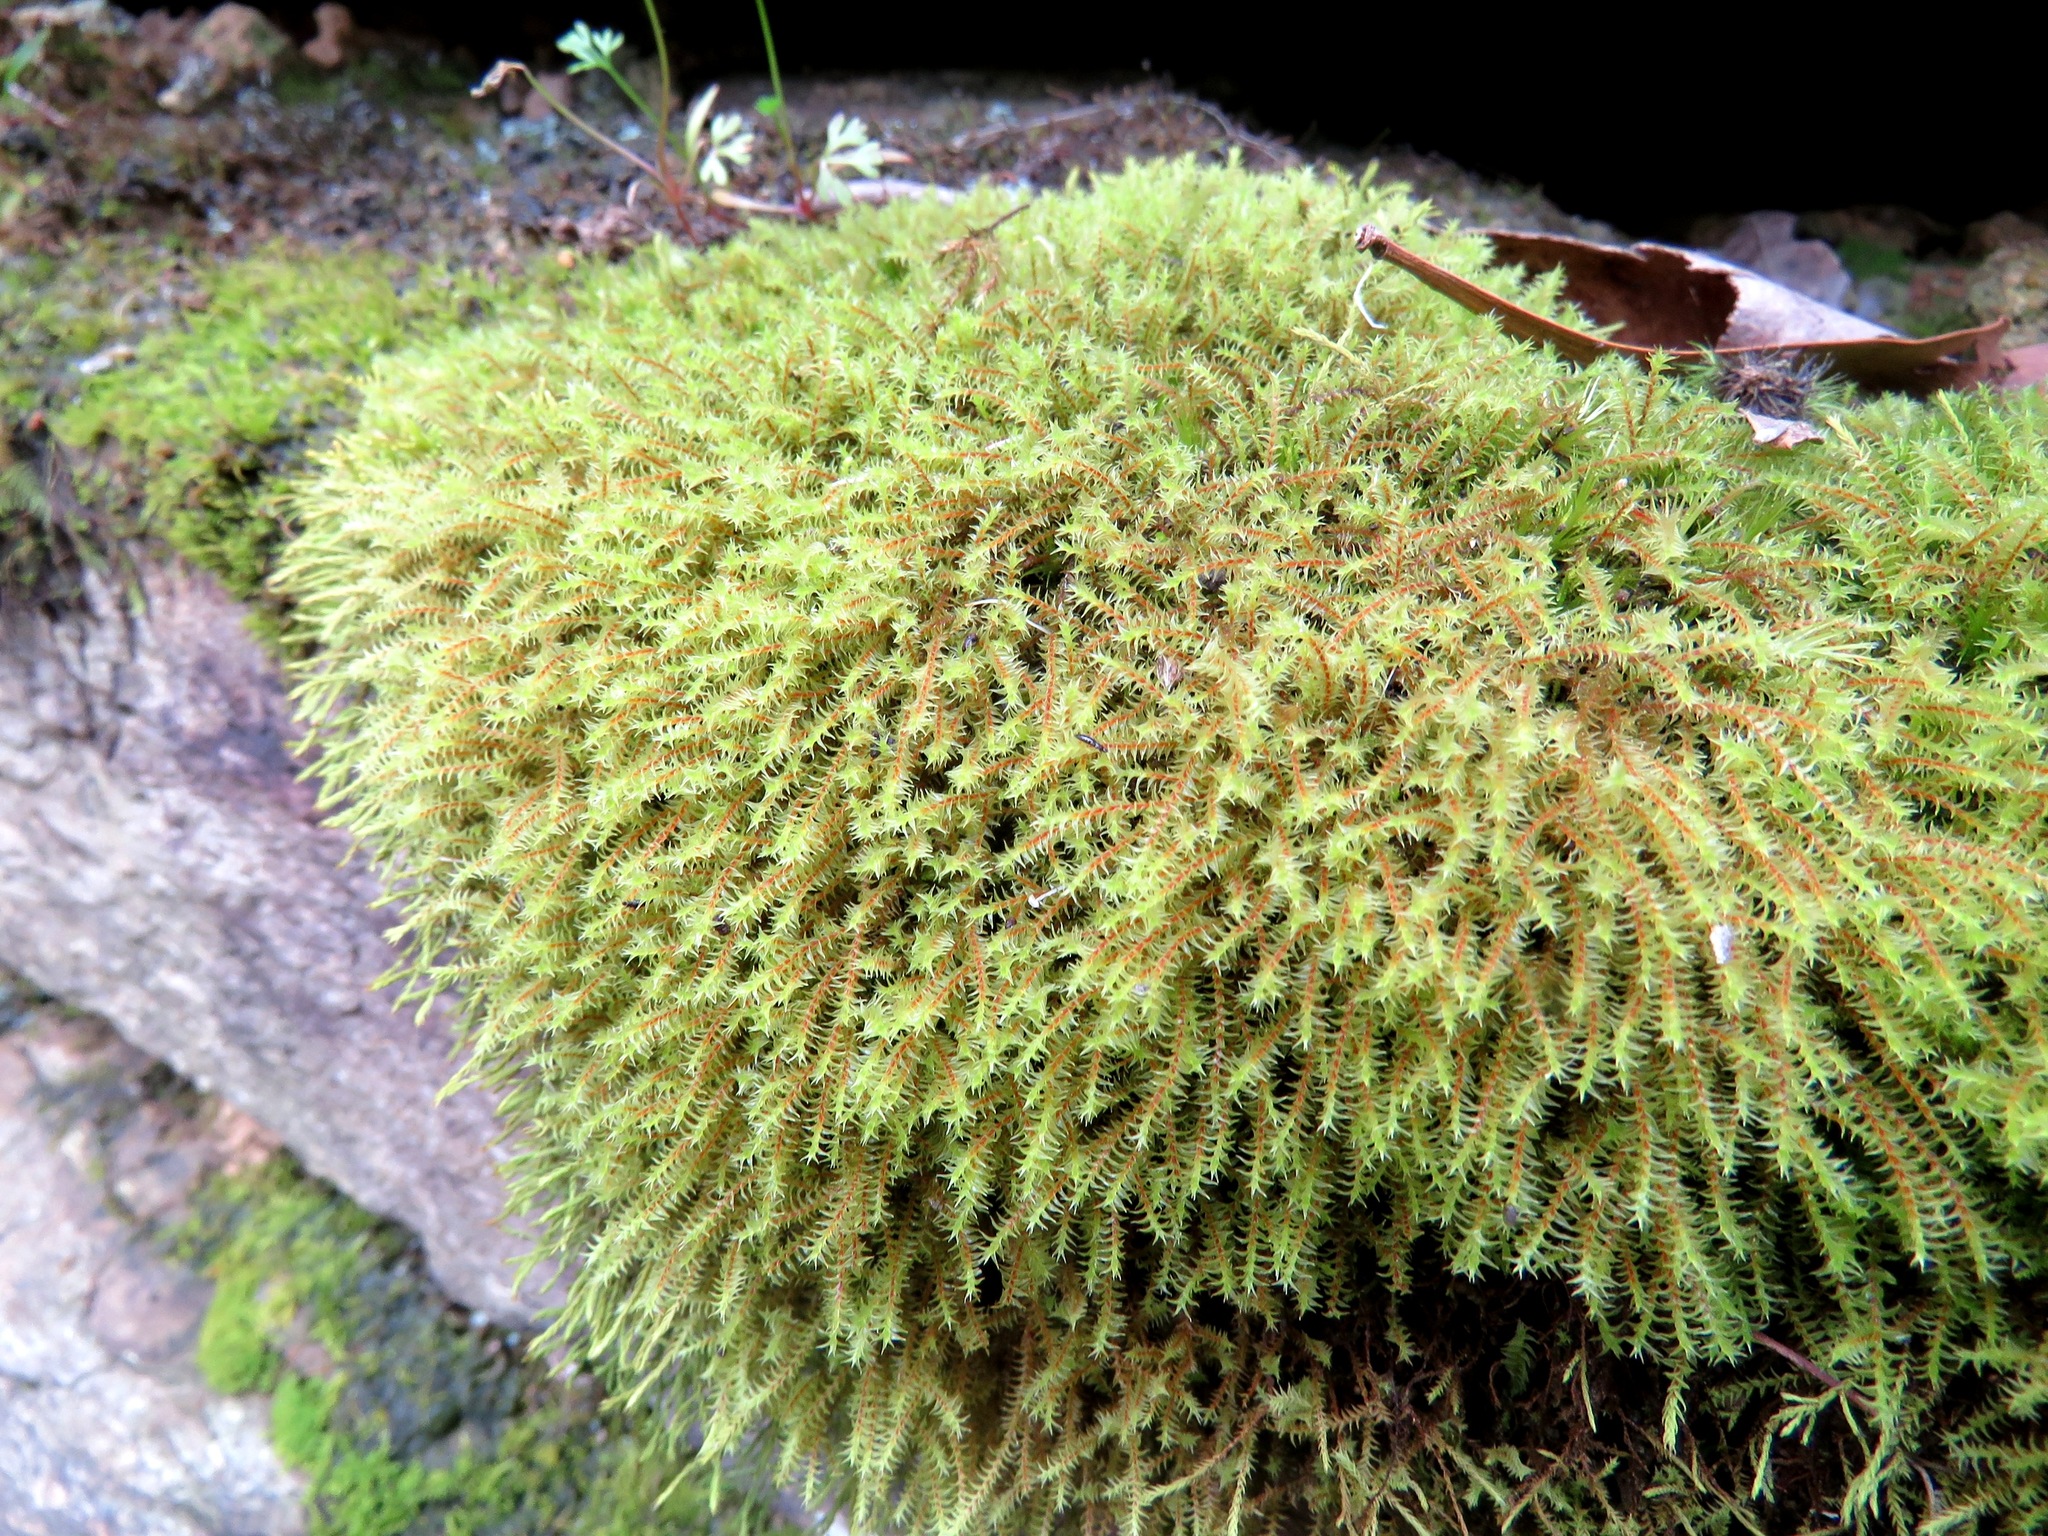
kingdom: Plantae
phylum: Bryophyta
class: Bryopsida
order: Pottiales
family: Pottiaceae
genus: Triquetrella
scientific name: Triquetrella papillata
